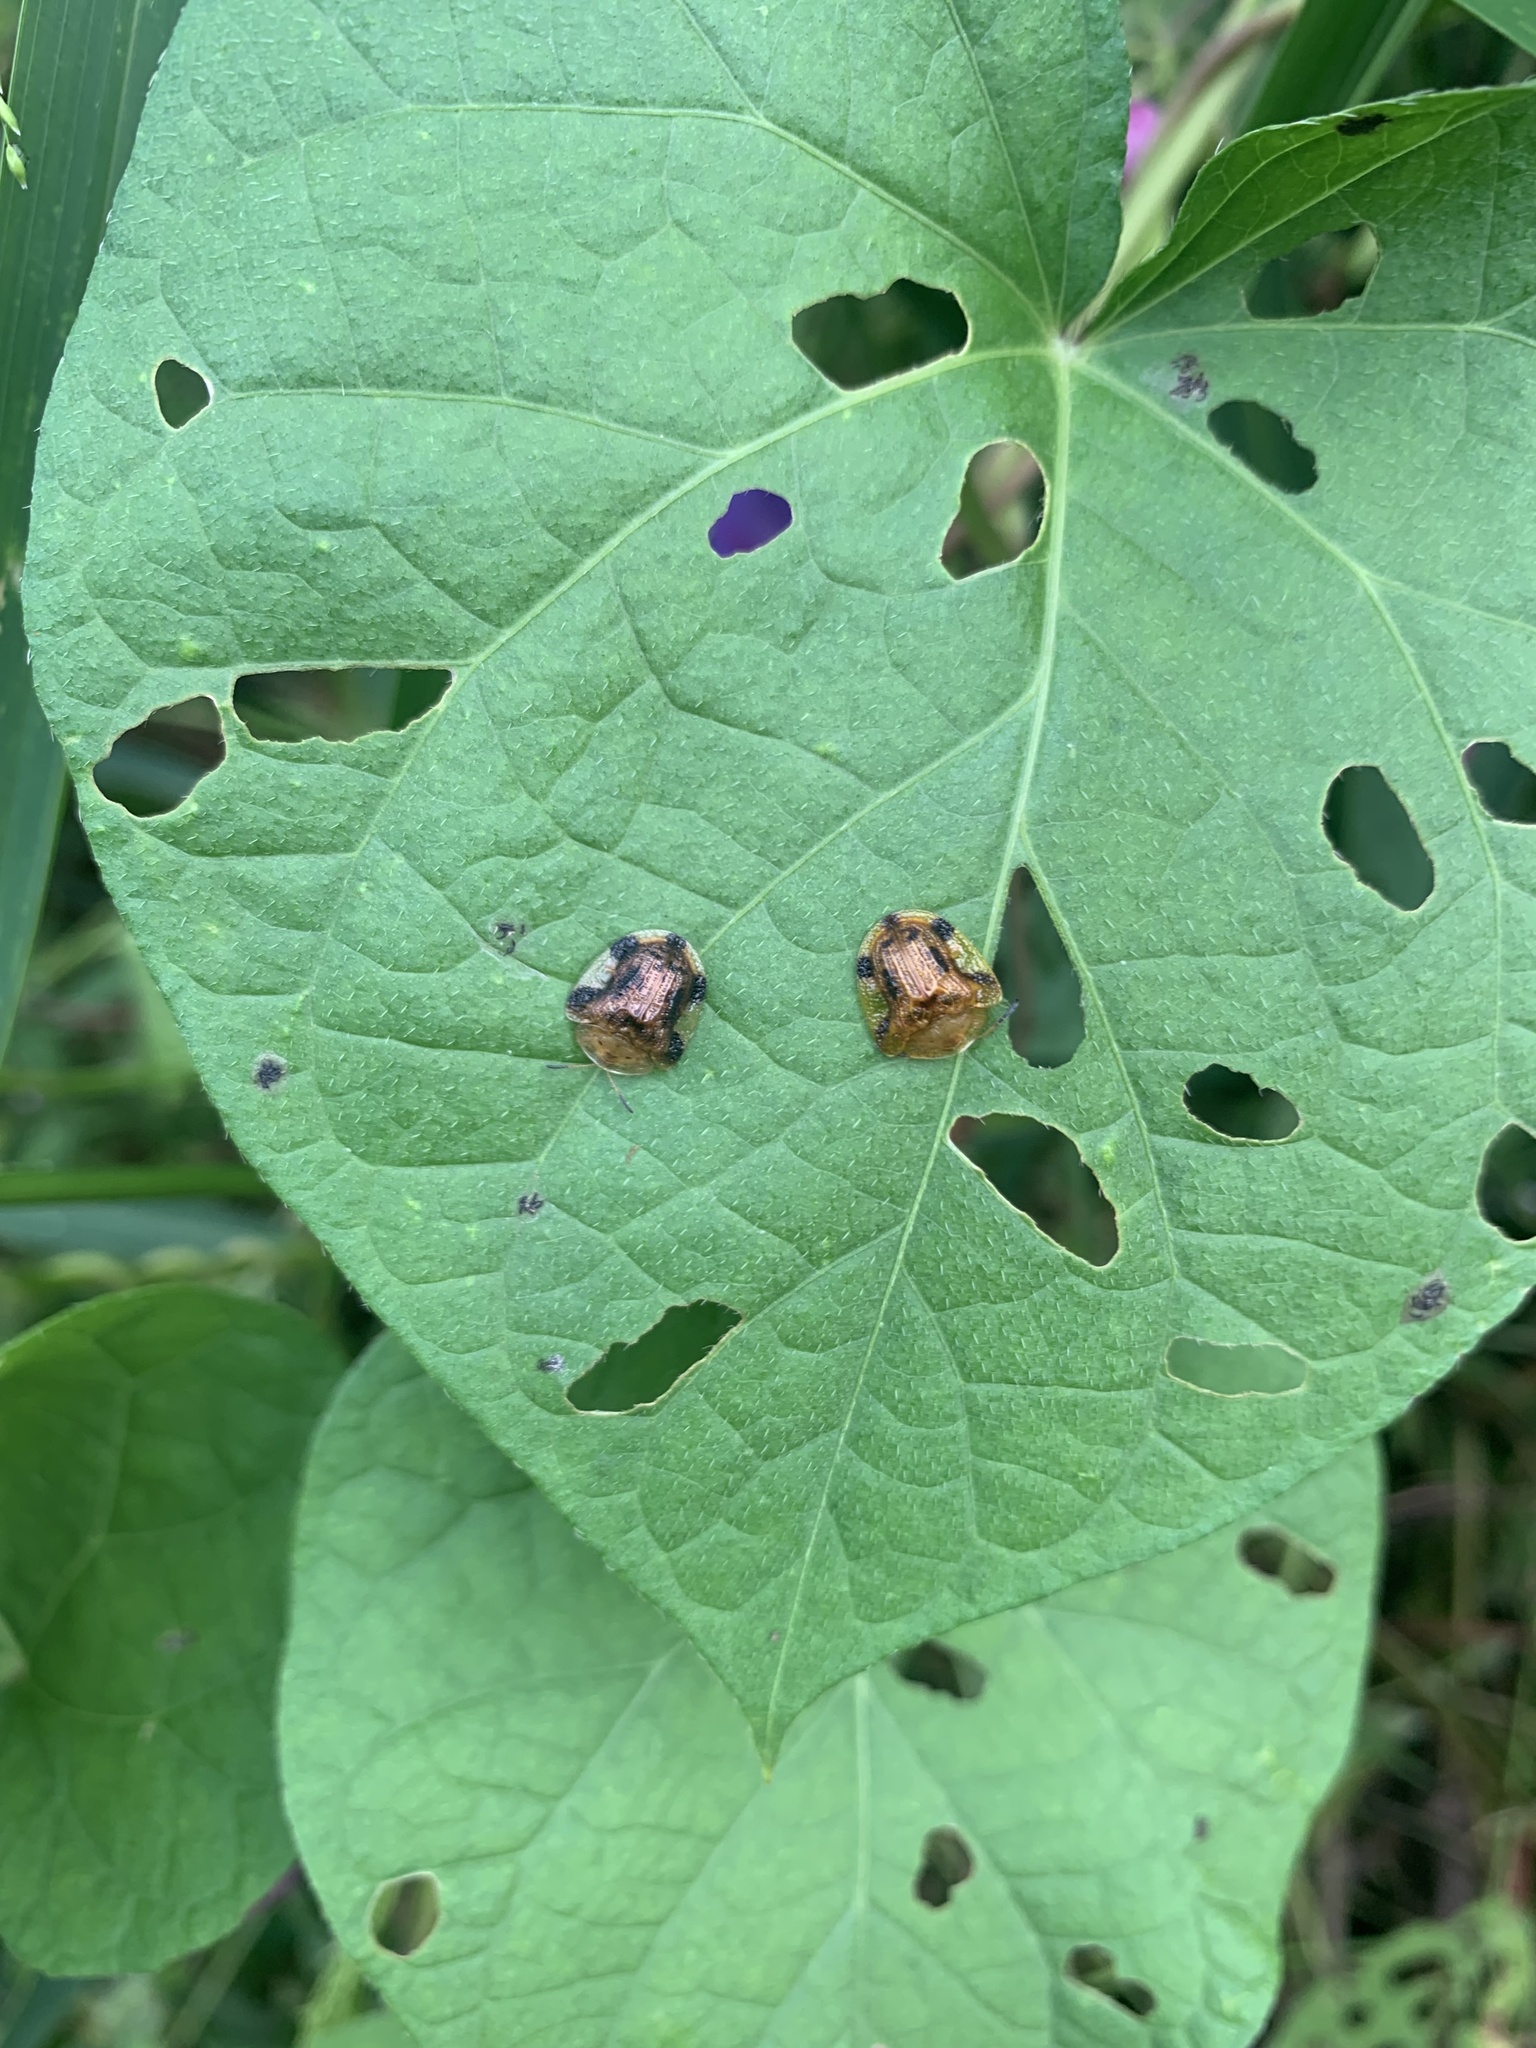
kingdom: Animalia
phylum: Arthropoda
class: Insecta
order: Coleoptera
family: Chrysomelidae
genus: Laccoptera
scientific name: Laccoptera nepalensis
